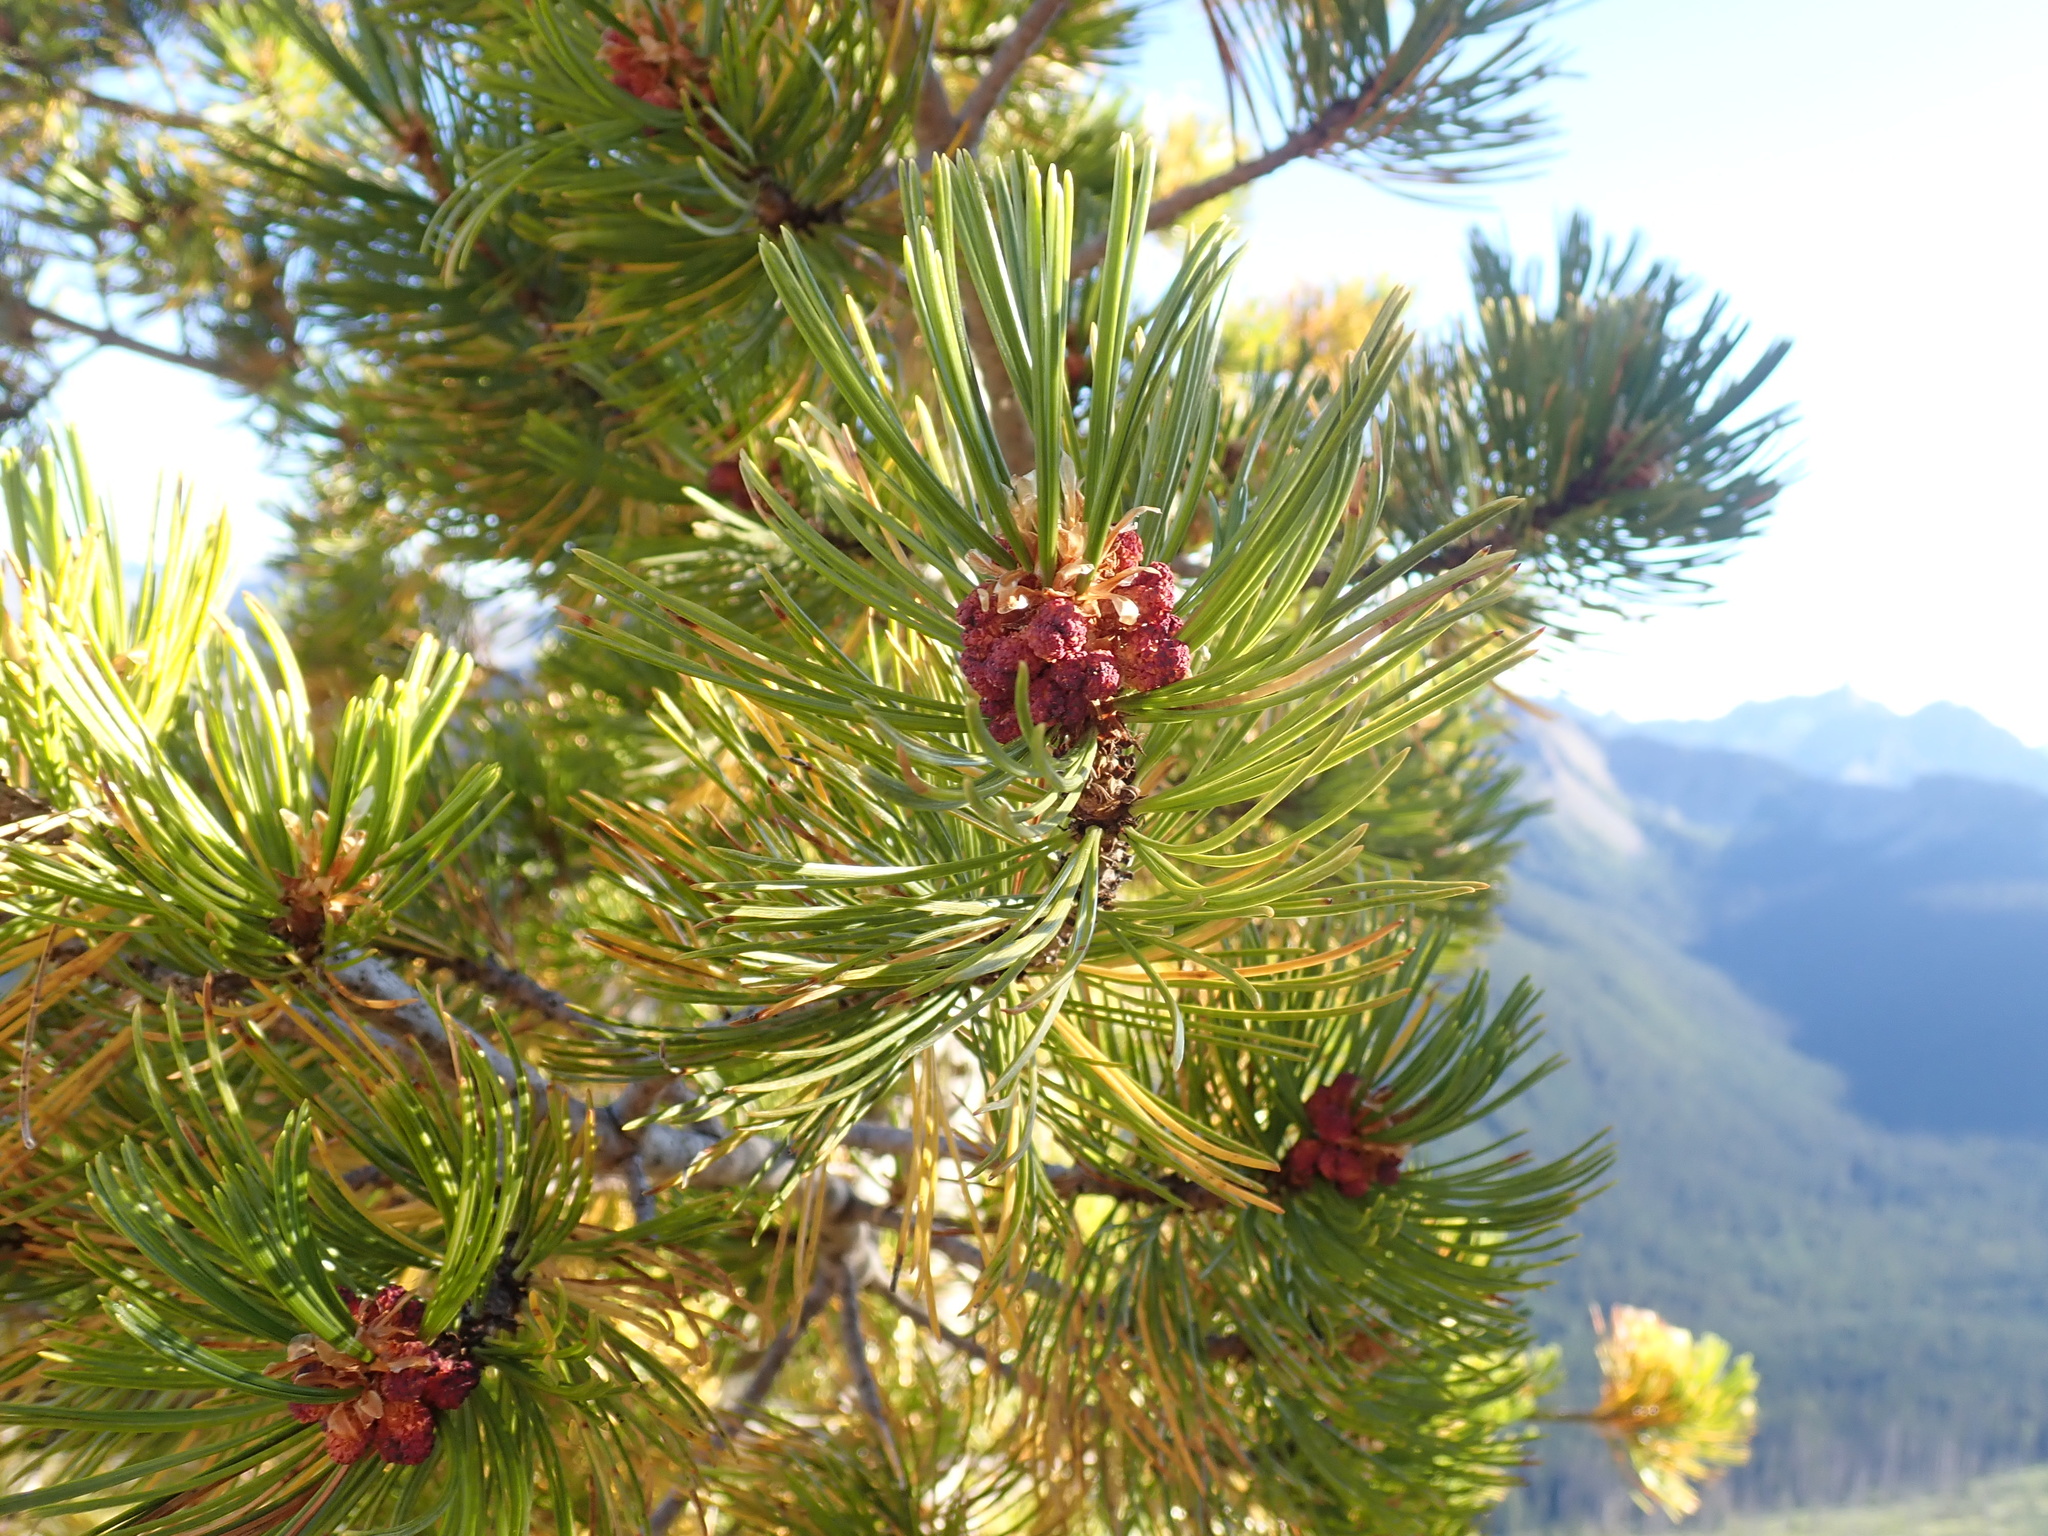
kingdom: Plantae
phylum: Tracheophyta
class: Pinopsida
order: Pinales
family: Pinaceae
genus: Pinus
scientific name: Pinus albicaulis
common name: Whitebark pine
